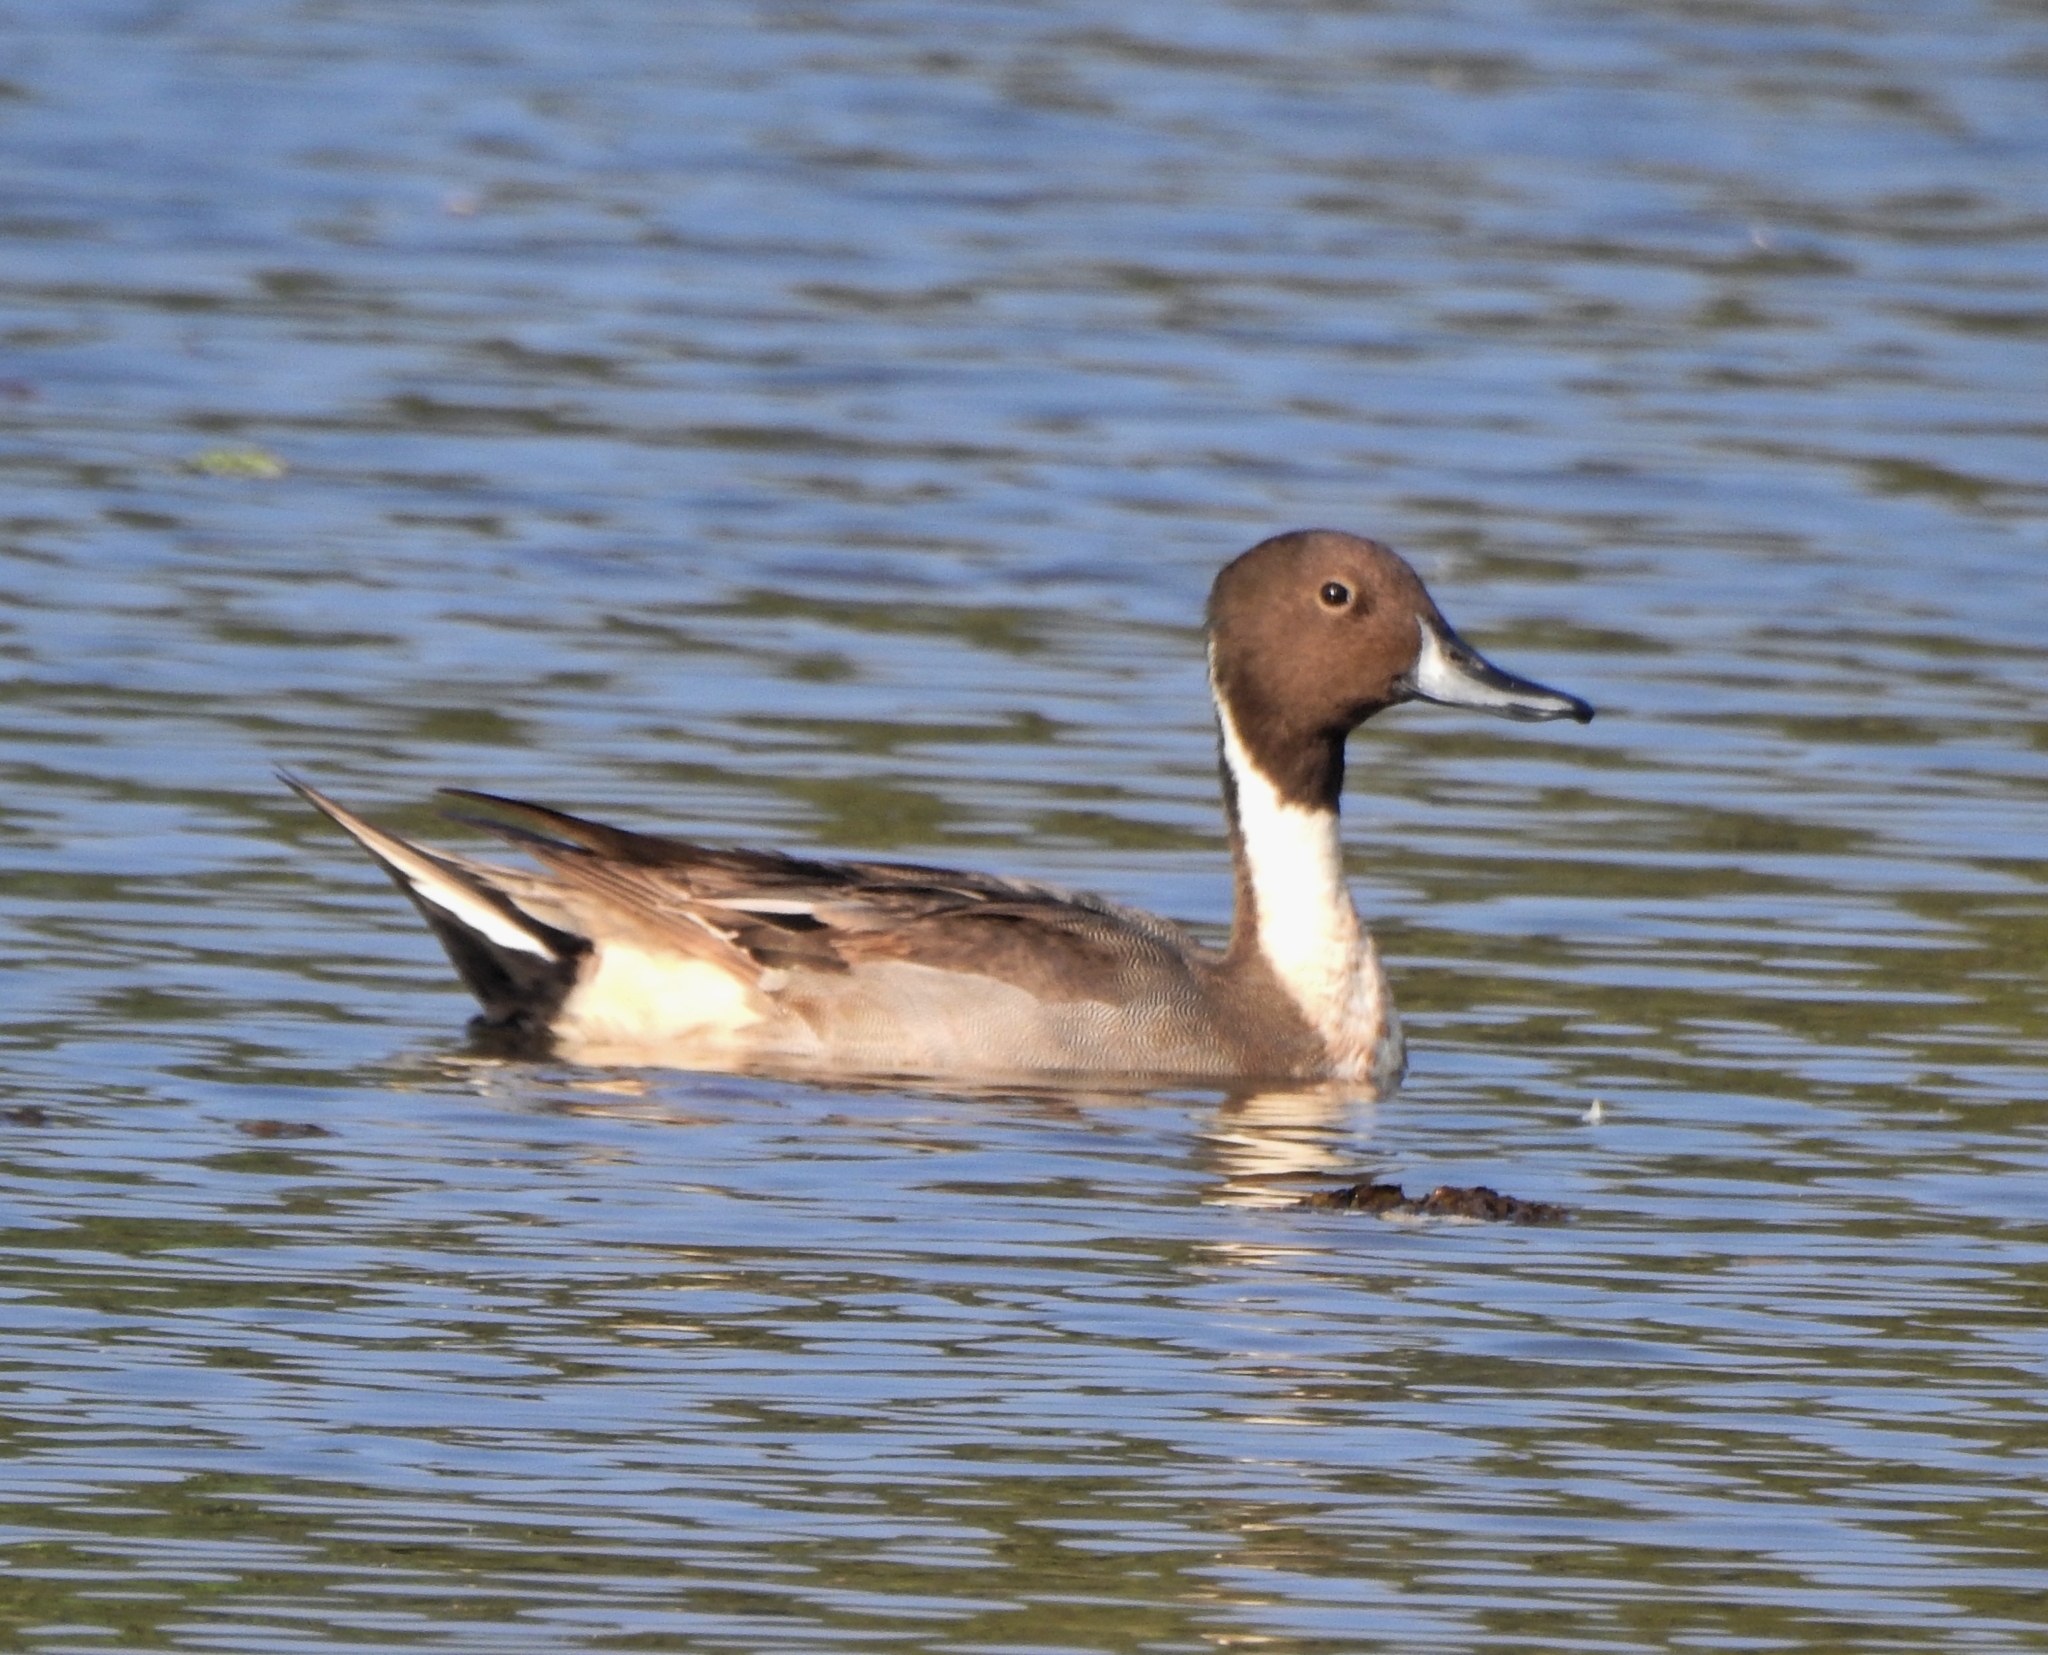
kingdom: Animalia
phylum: Chordata
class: Aves
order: Anseriformes
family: Anatidae
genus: Anas
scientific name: Anas acuta
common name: Northern pintail
